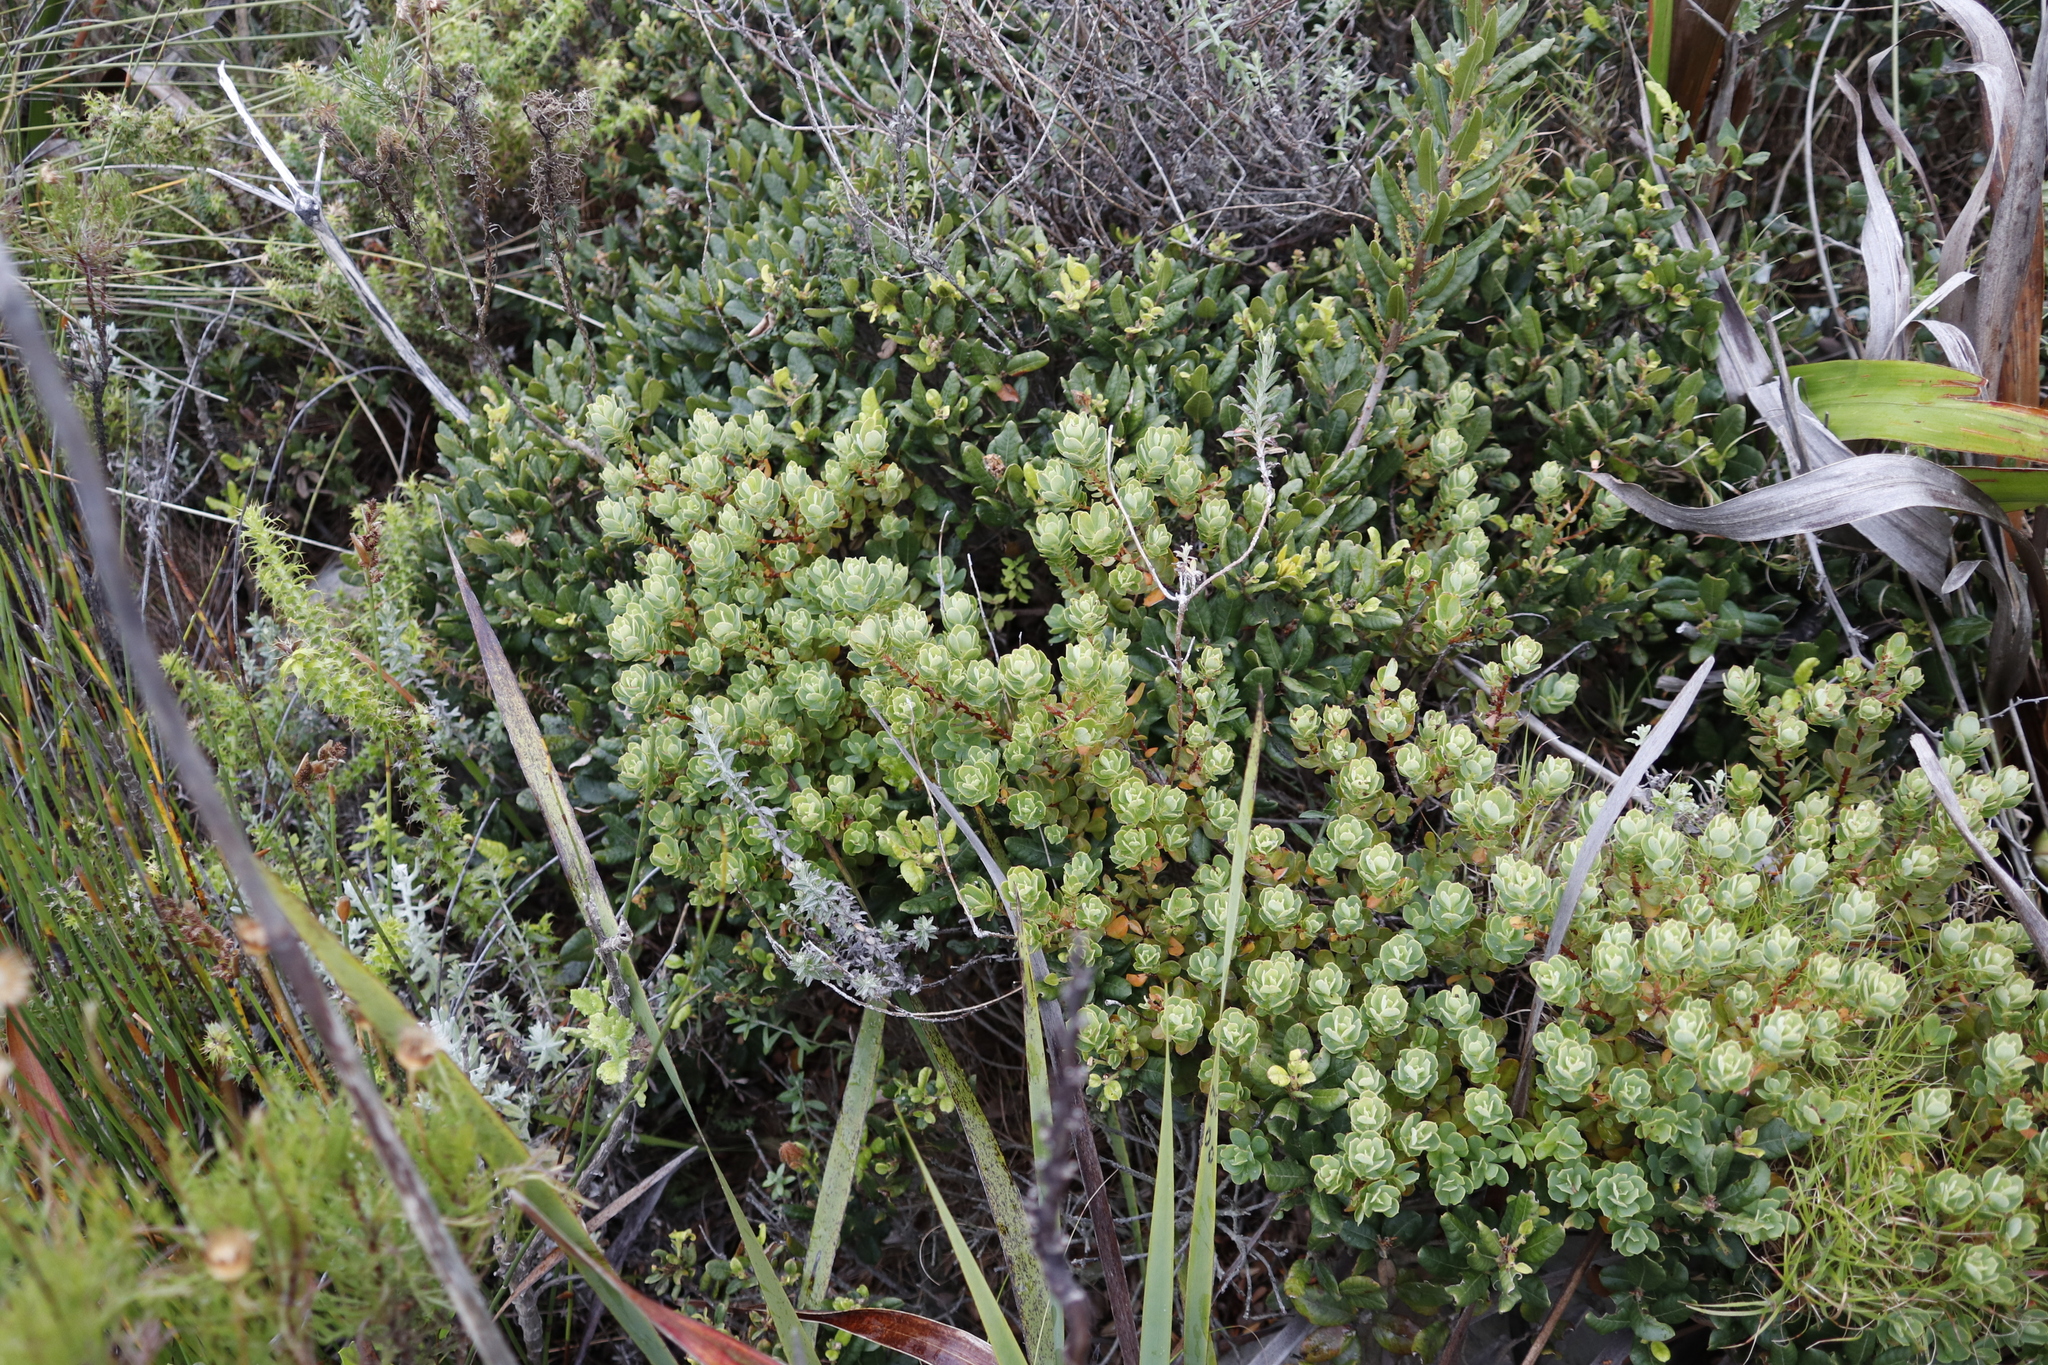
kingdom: Plantae
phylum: Tracheophyta
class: Magnoliopsida
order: Malpighiales
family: Peraceae
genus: Clutia
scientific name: Clutia alaternoides
